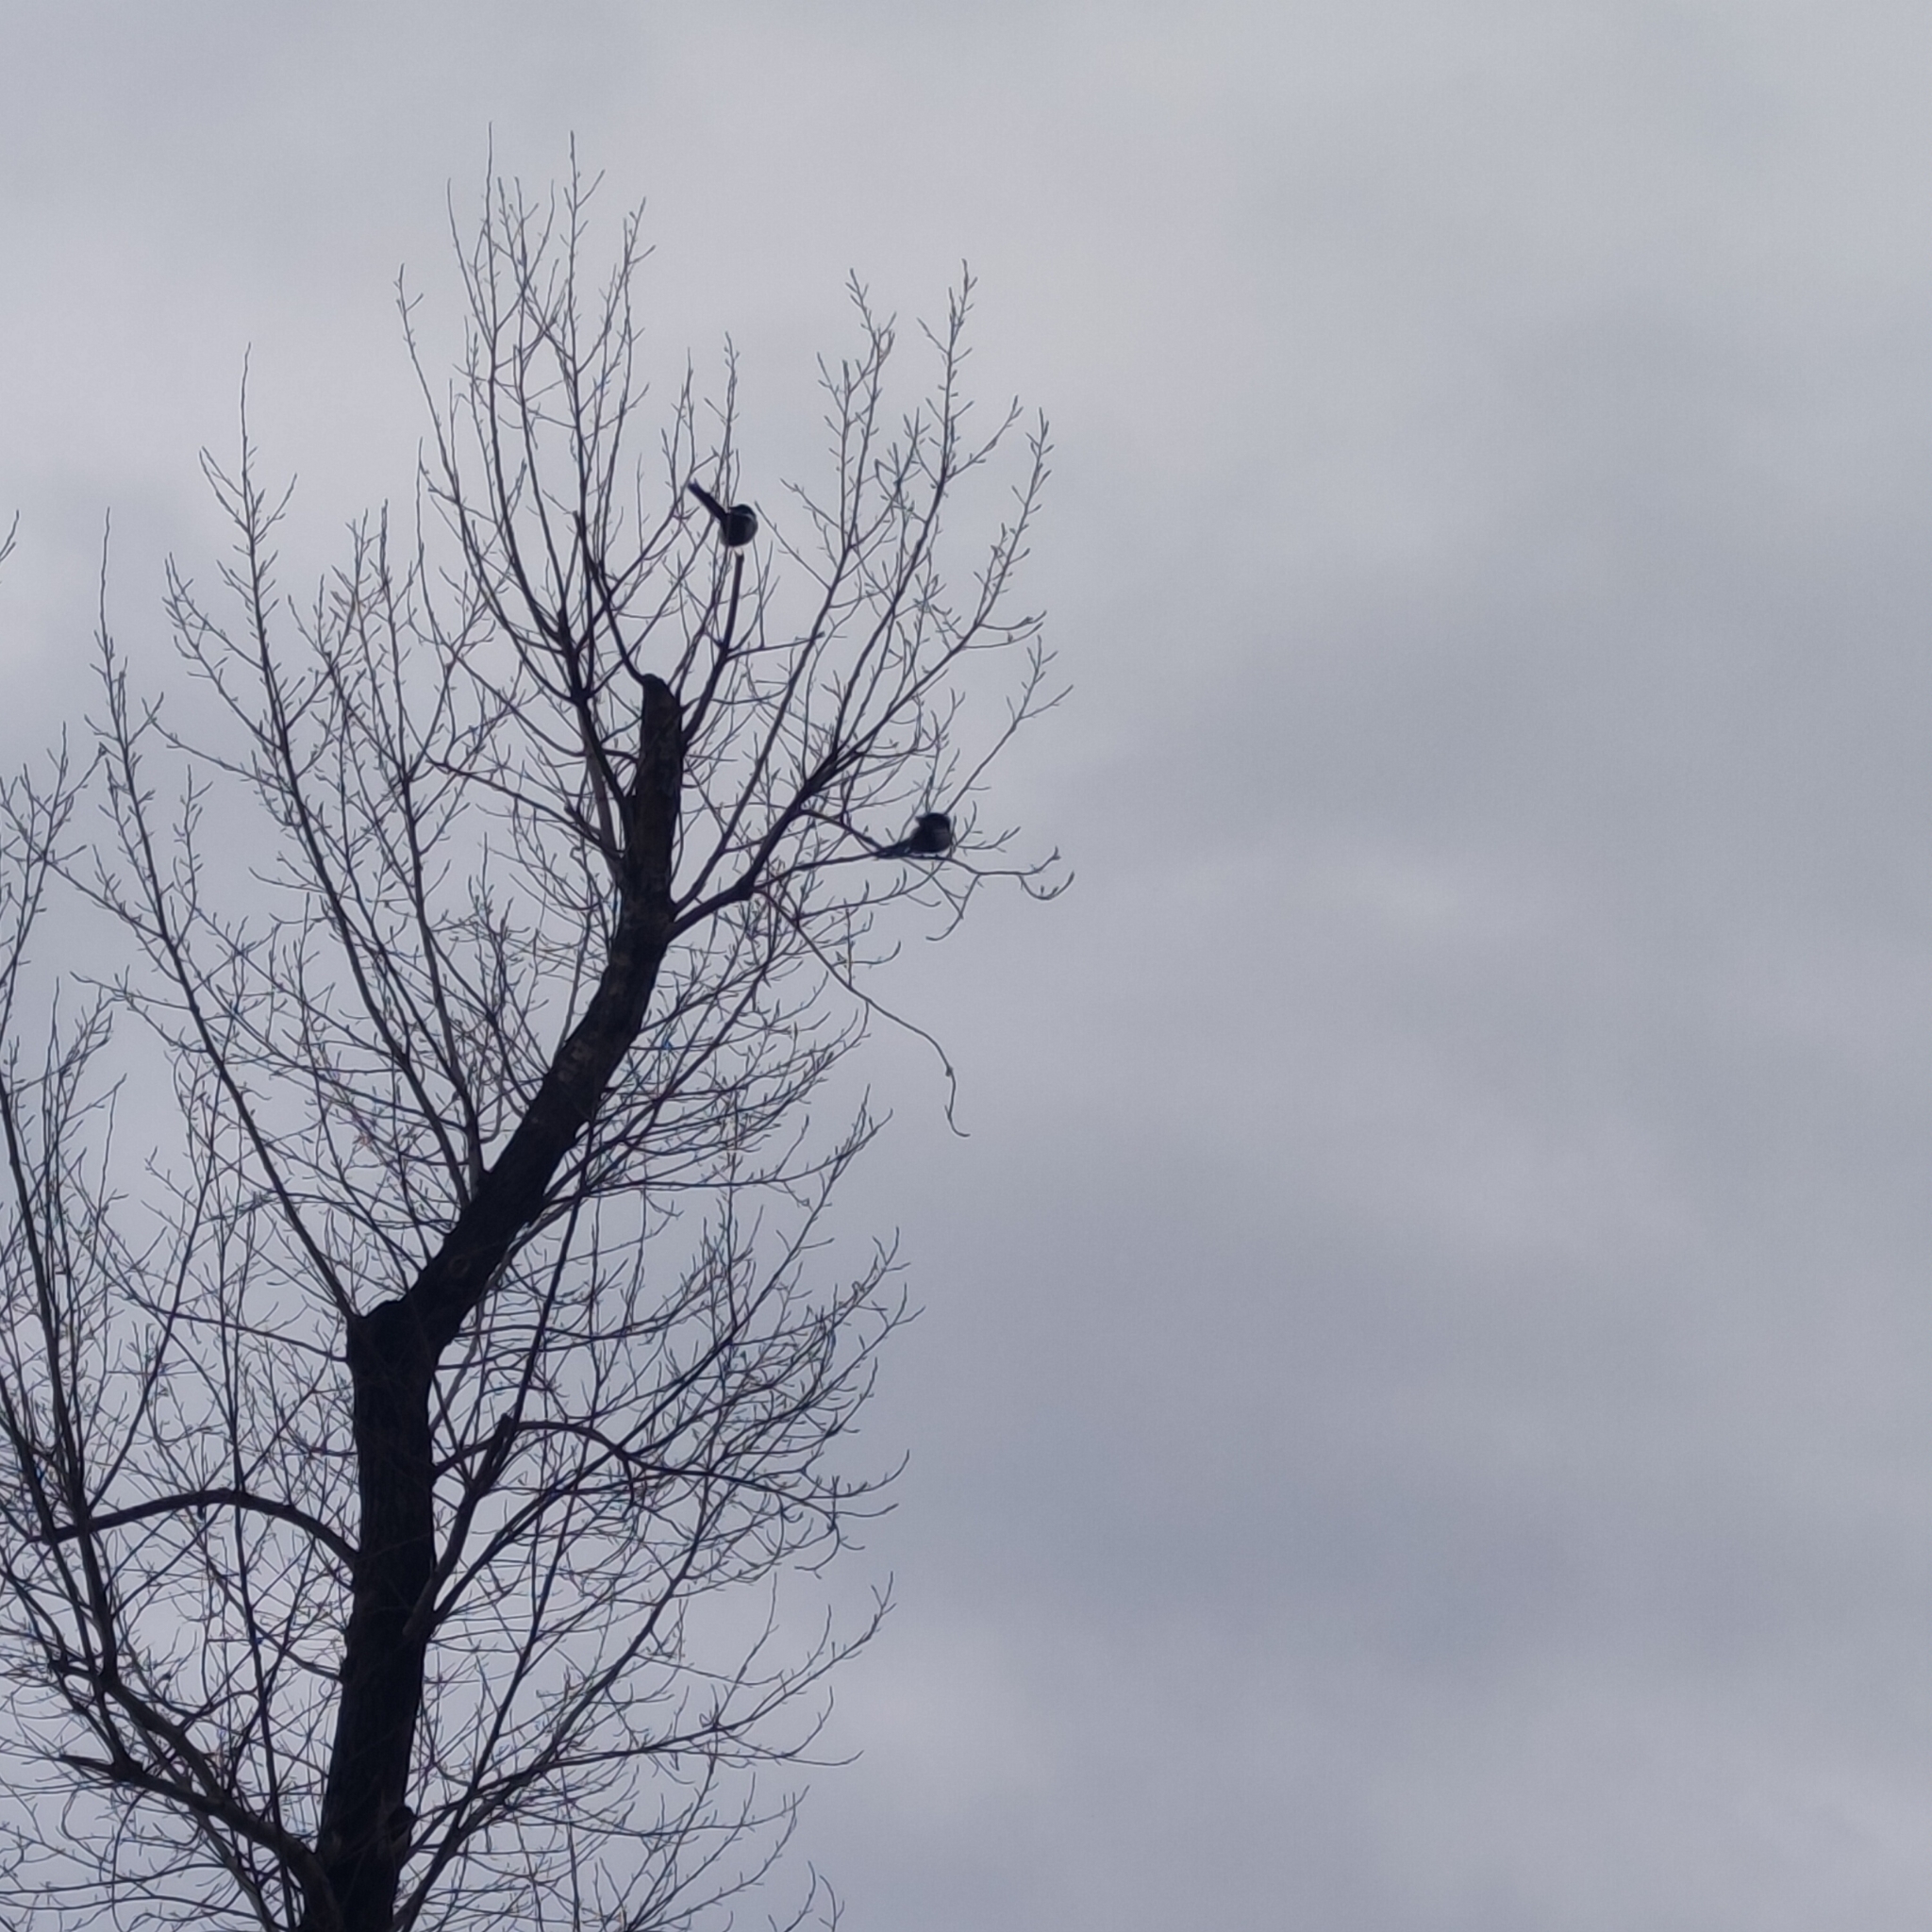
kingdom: Animalia
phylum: Chordata
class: Aves
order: Passeriformes
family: Corvidae
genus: Pica
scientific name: Pica pica
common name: Eurasian magpie
